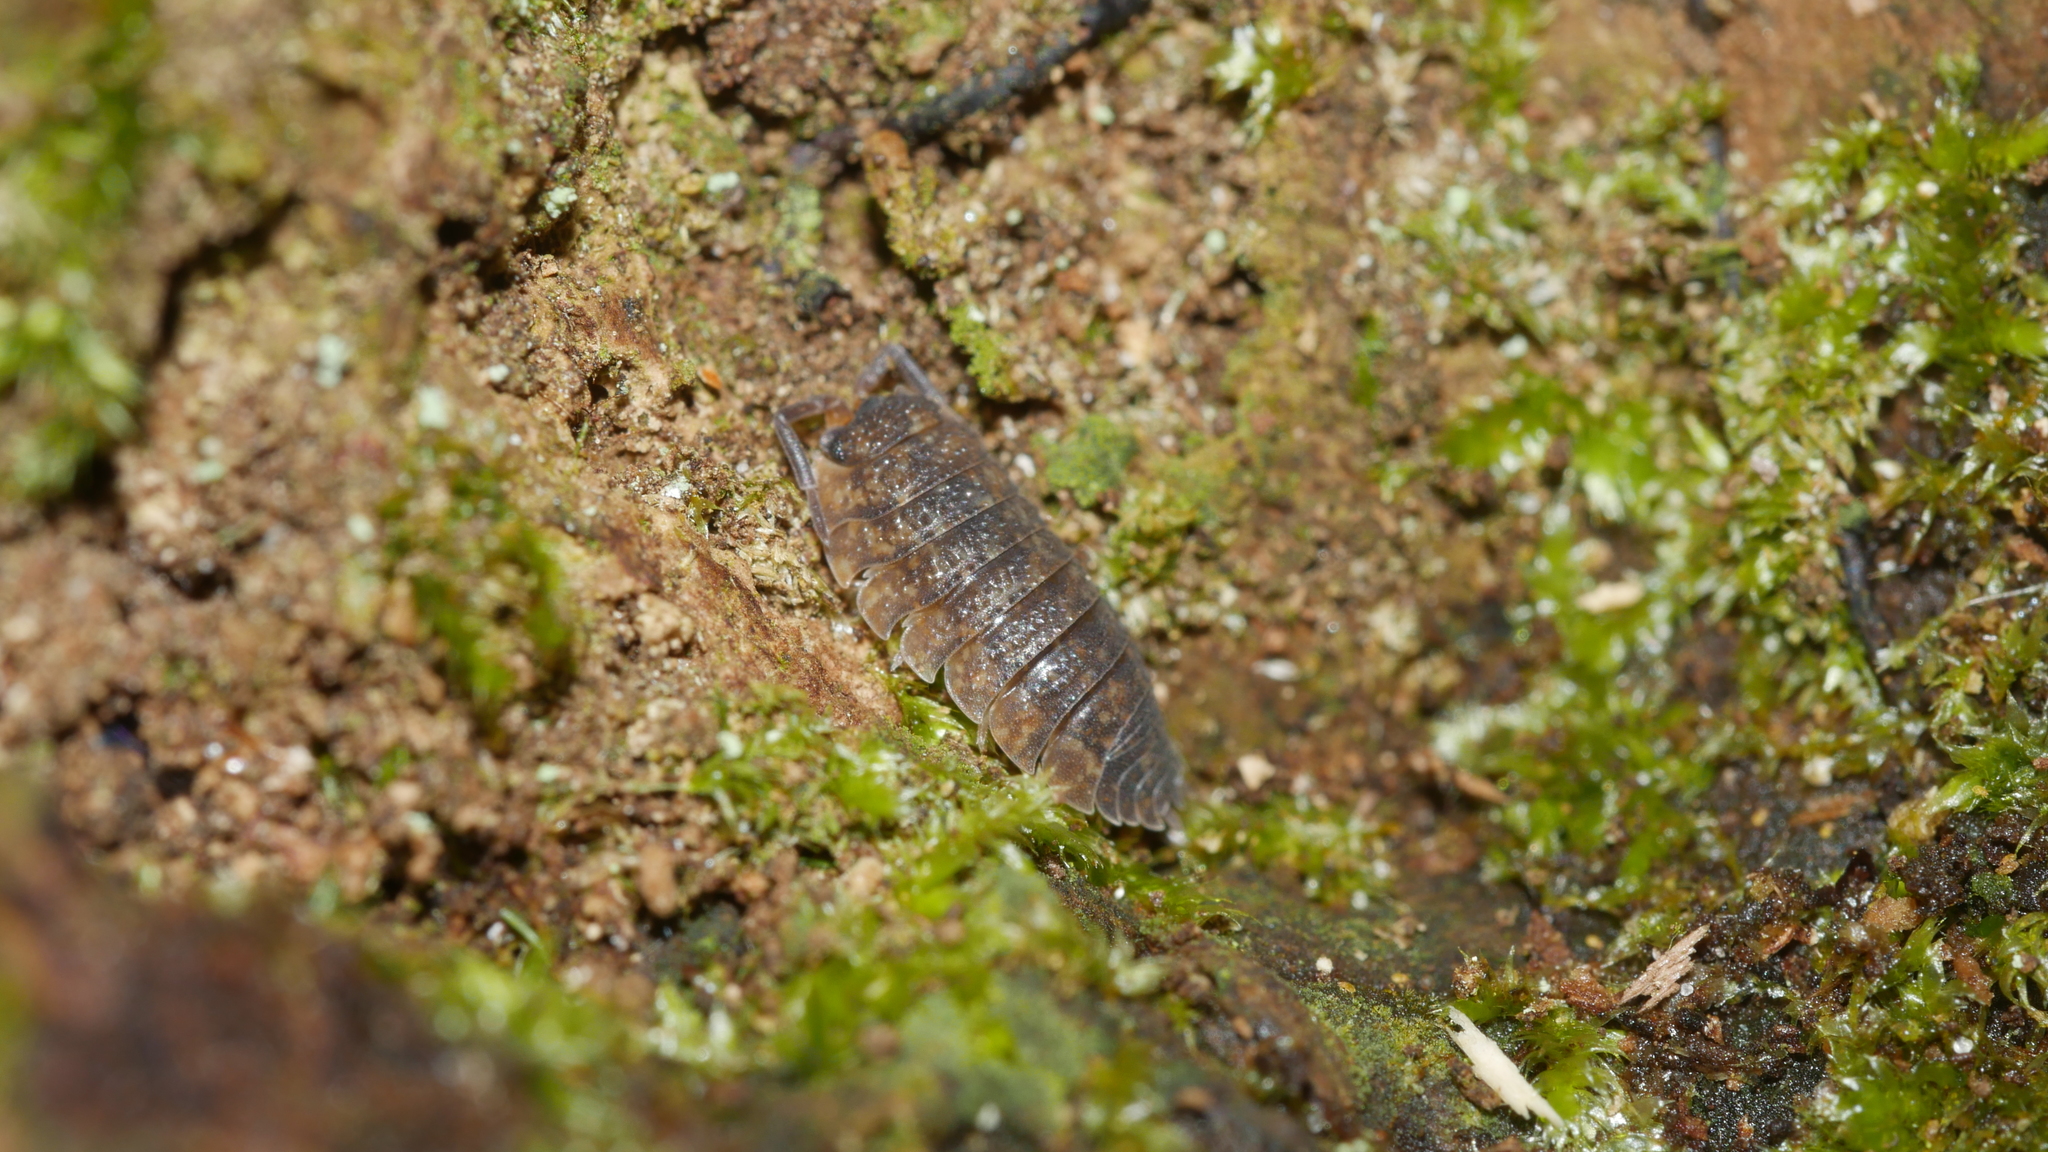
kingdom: Animalia
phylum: Arthropoda
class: Malacostraca
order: Isopoda
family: Porcellionidae
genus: Porcellio
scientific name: Porcellio scaber
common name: Common rough woodlouse
